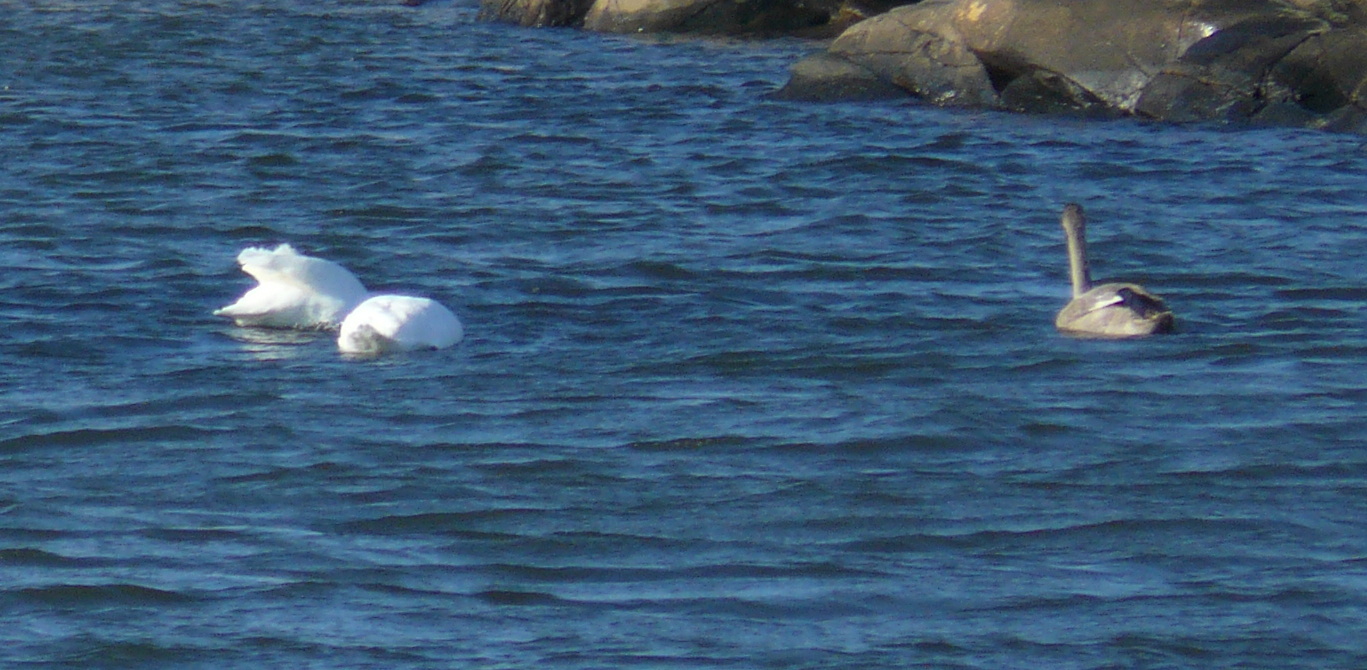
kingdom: Animalia
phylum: Chordata
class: Aves
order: Anseriformes
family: Anatidae
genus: Cygnus
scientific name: Cygnus olor
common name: Mute swan
